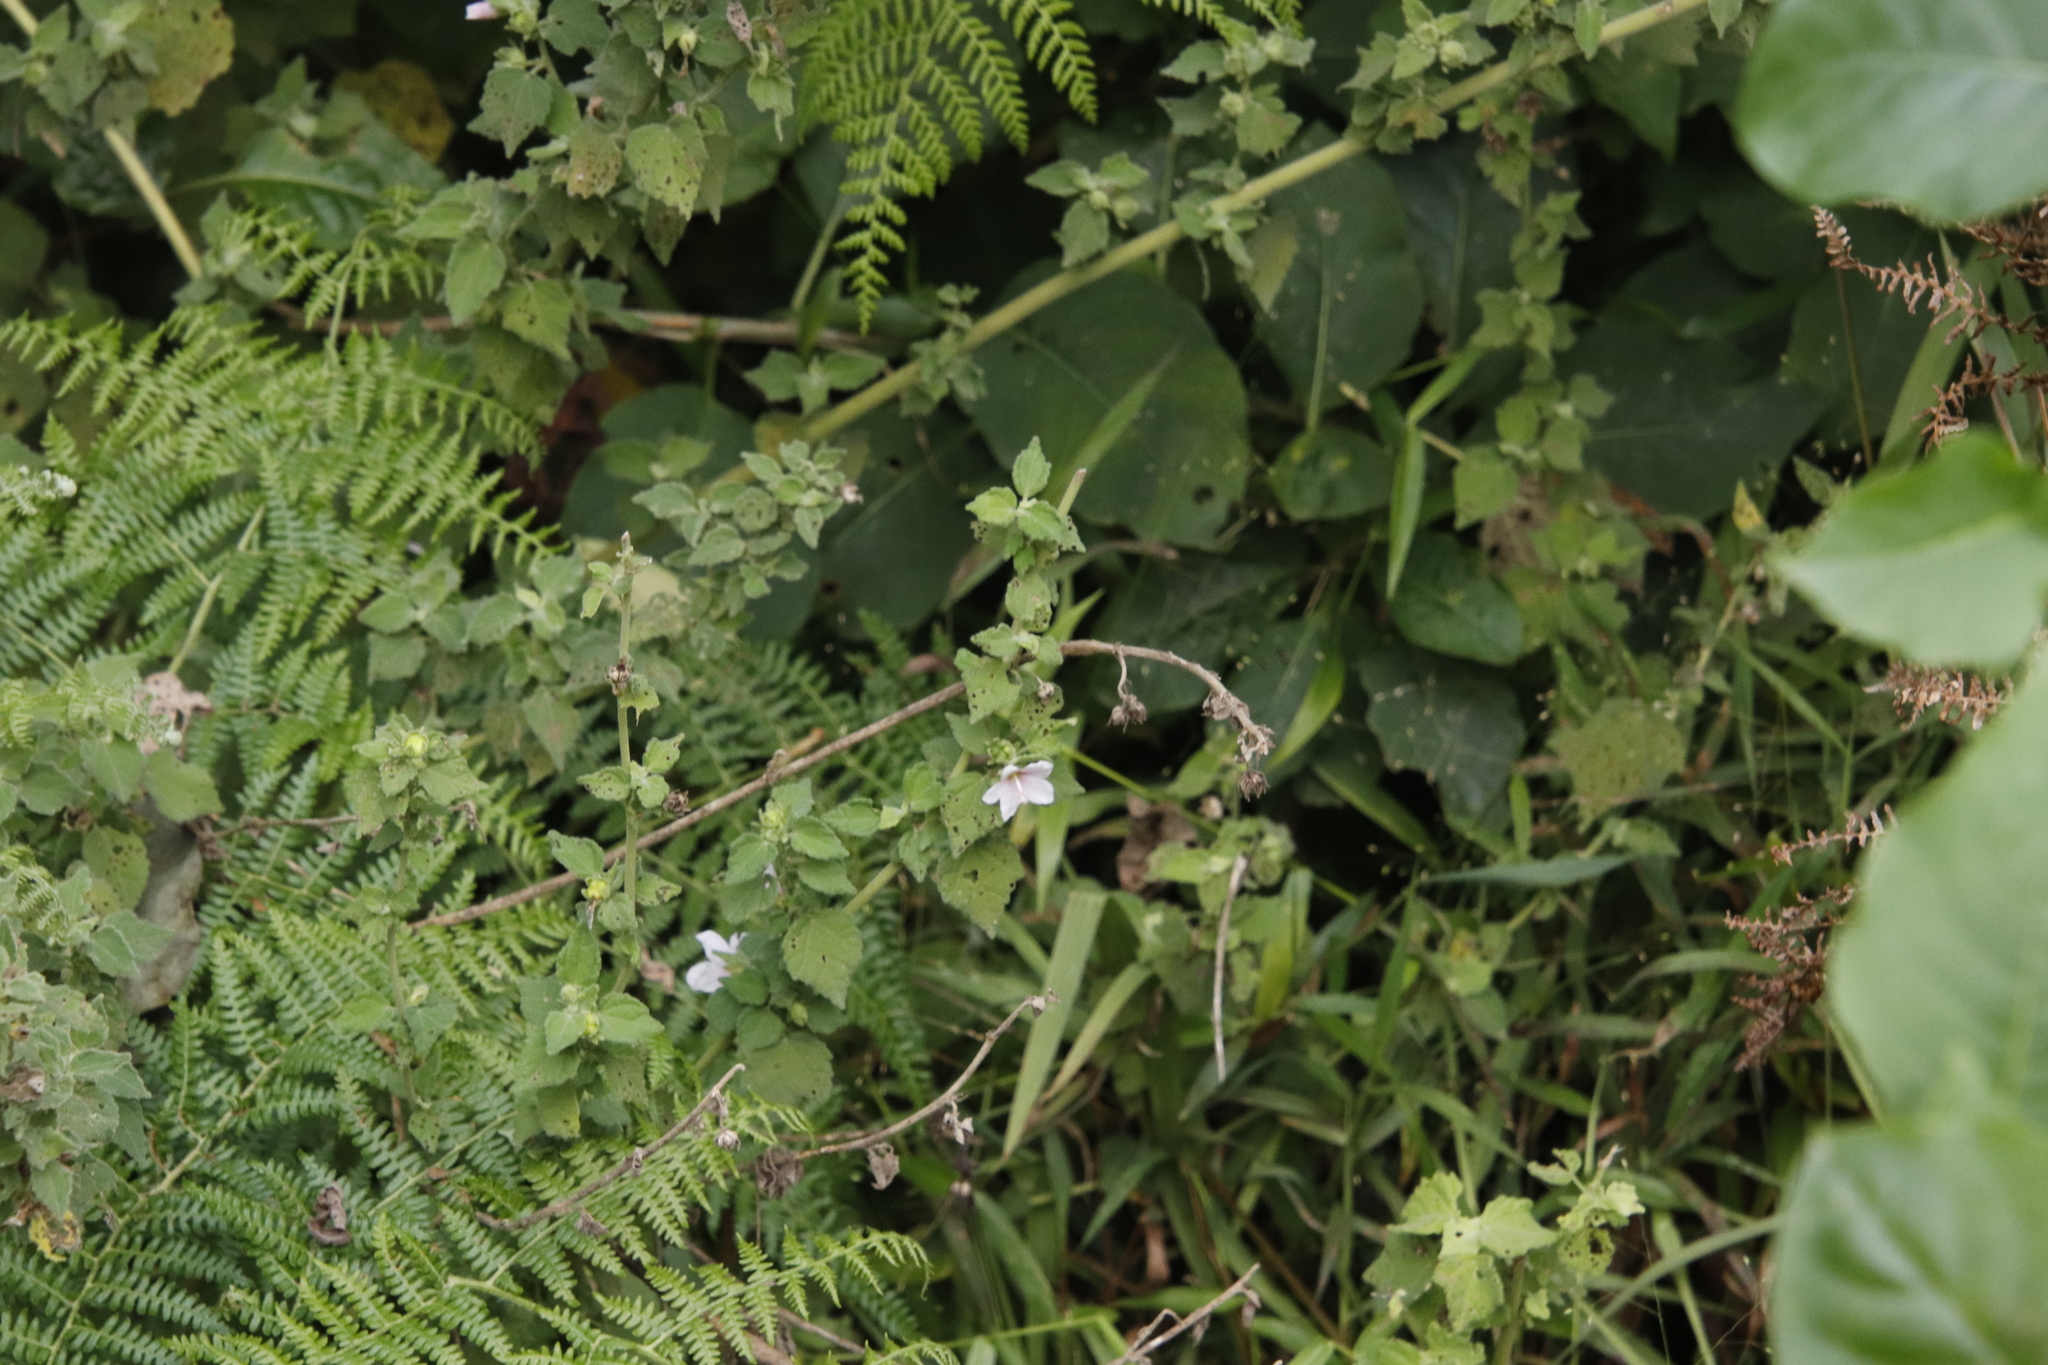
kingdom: Plantae
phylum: Tracheophyta
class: Magnoliopsida
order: Malvales
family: Malvaceae
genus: Pavonia
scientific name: Pavonia columella
